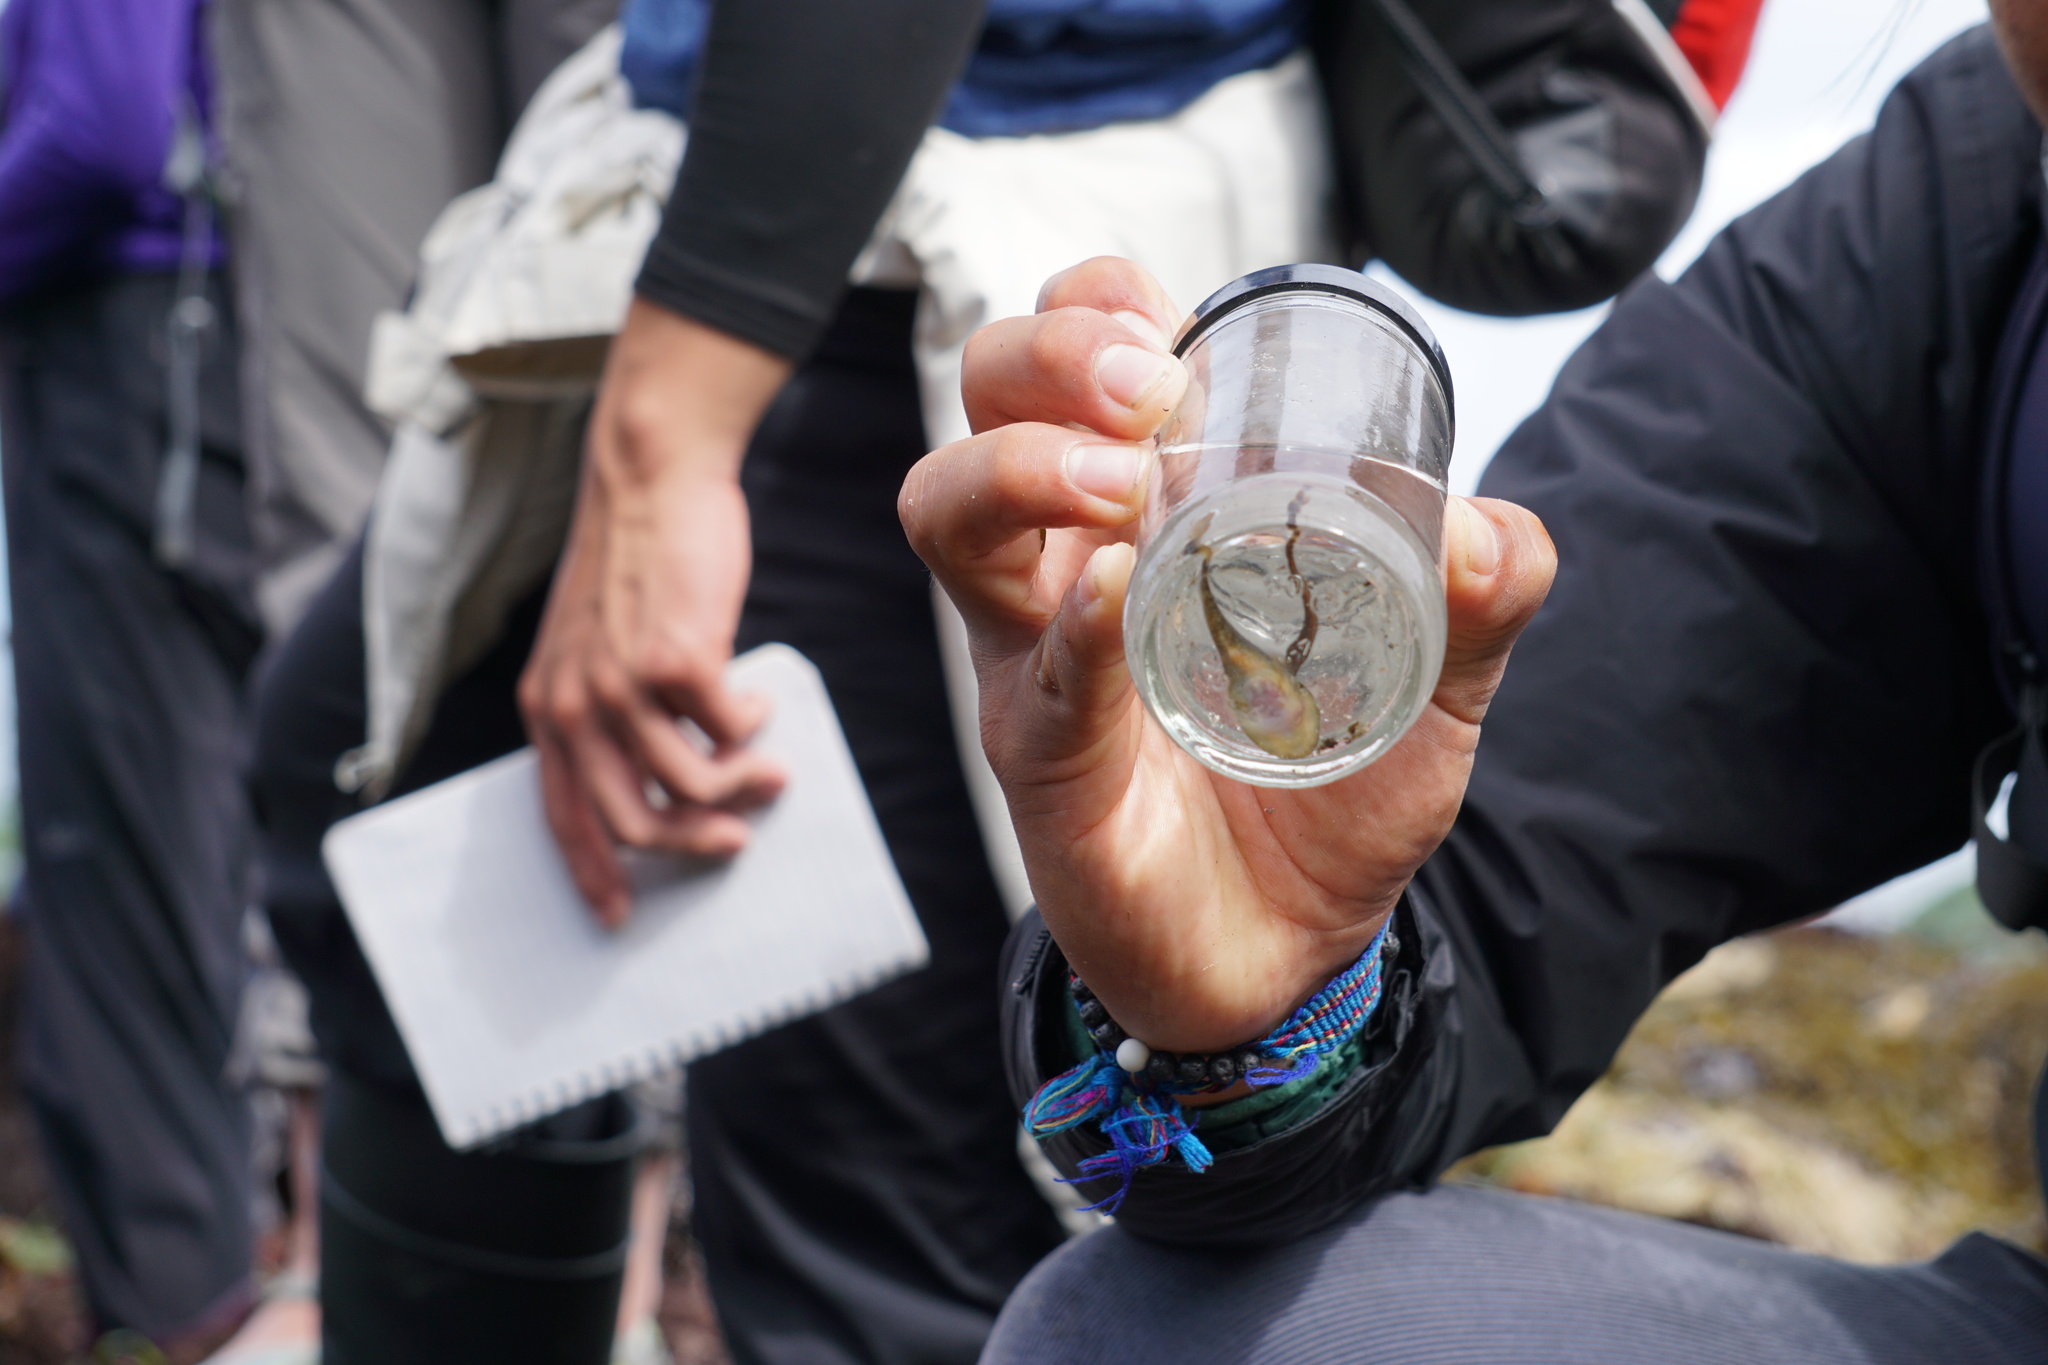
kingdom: Animalia
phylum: Chordata
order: Gobiesociformes
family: Gobiesocidae
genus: Gobiesox
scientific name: Gobiesox maeandricus
